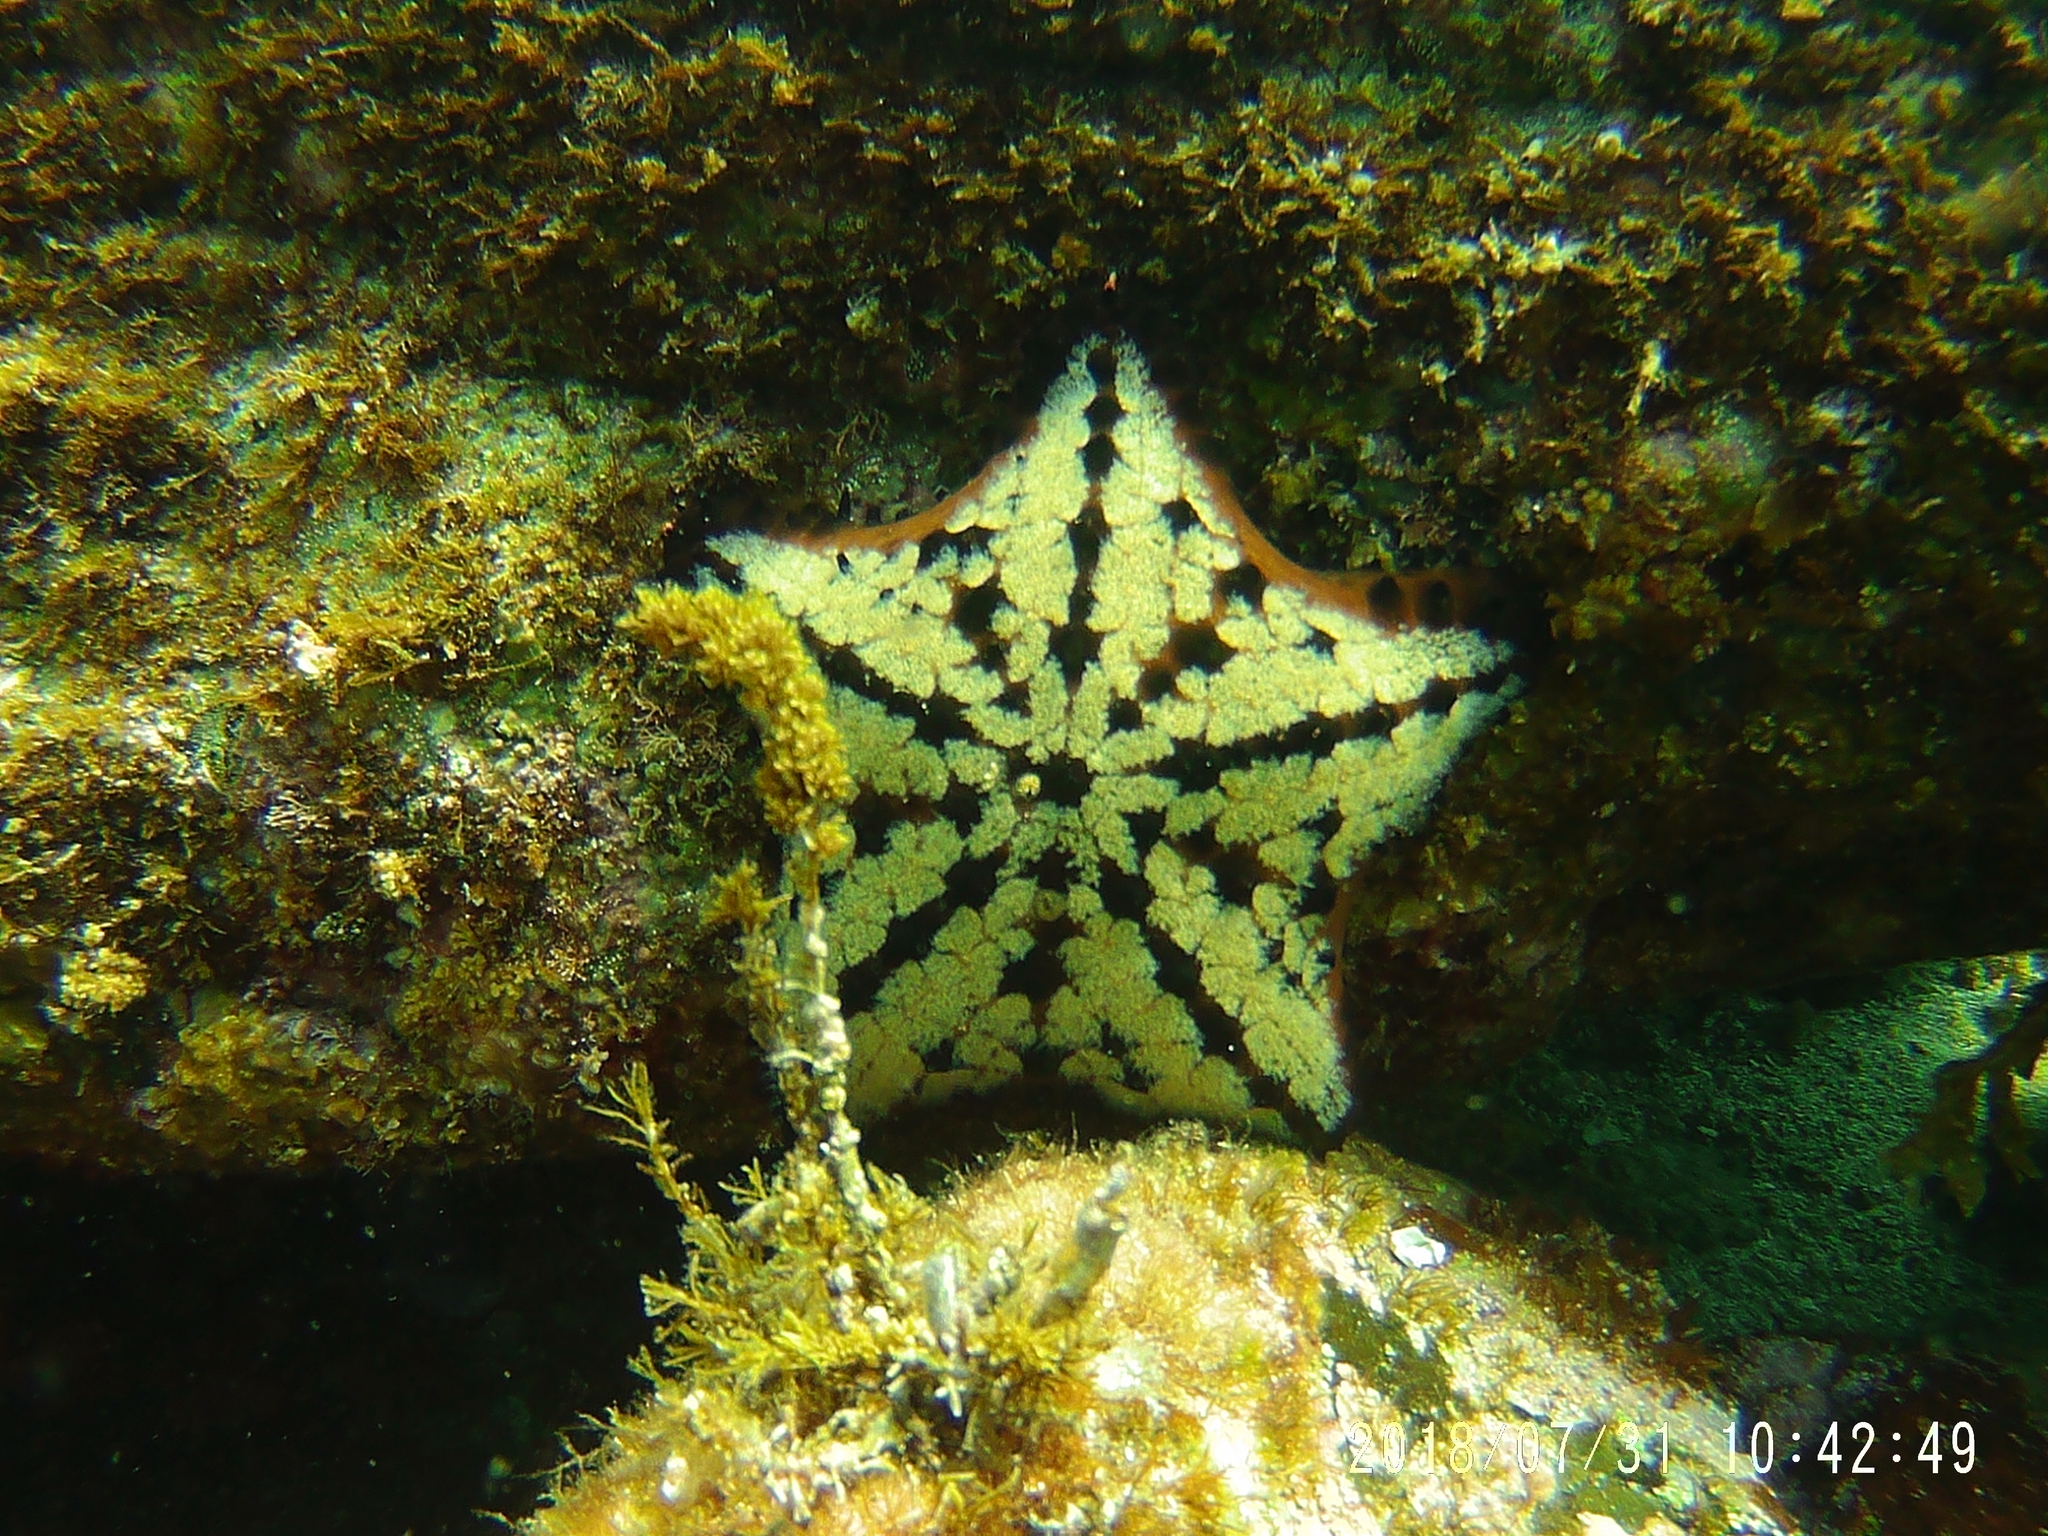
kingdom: Animalia
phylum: Echinodermata
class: Asteroidea
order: Valvatida
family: Oreasteridae
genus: Nidorellia
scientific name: Nidorellia armata
